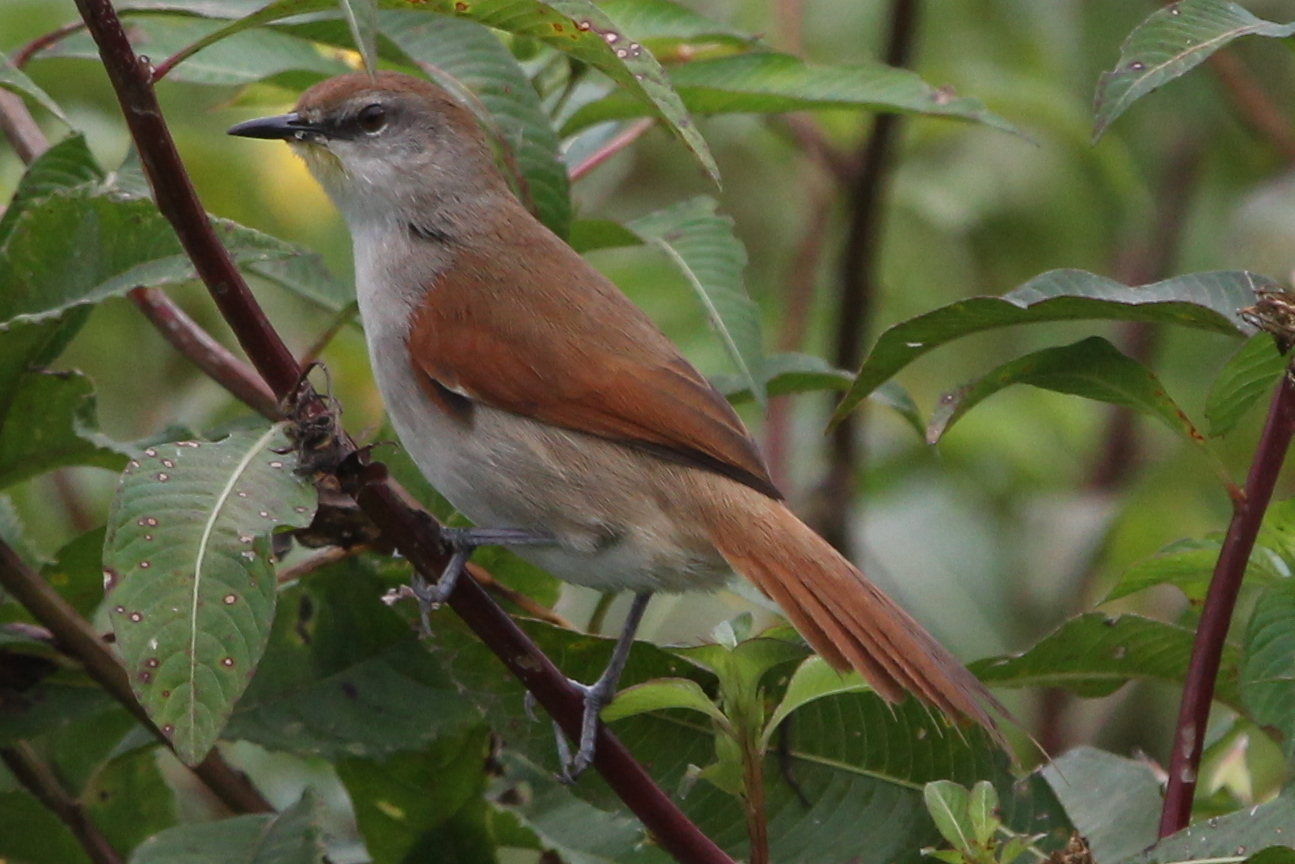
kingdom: Animalia
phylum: Chordata
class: Aves
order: Passeriformes
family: Furnariidae
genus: Certhiaxis
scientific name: Certhiaxis cinnamomeus
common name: Yellow-chinned spinetail
